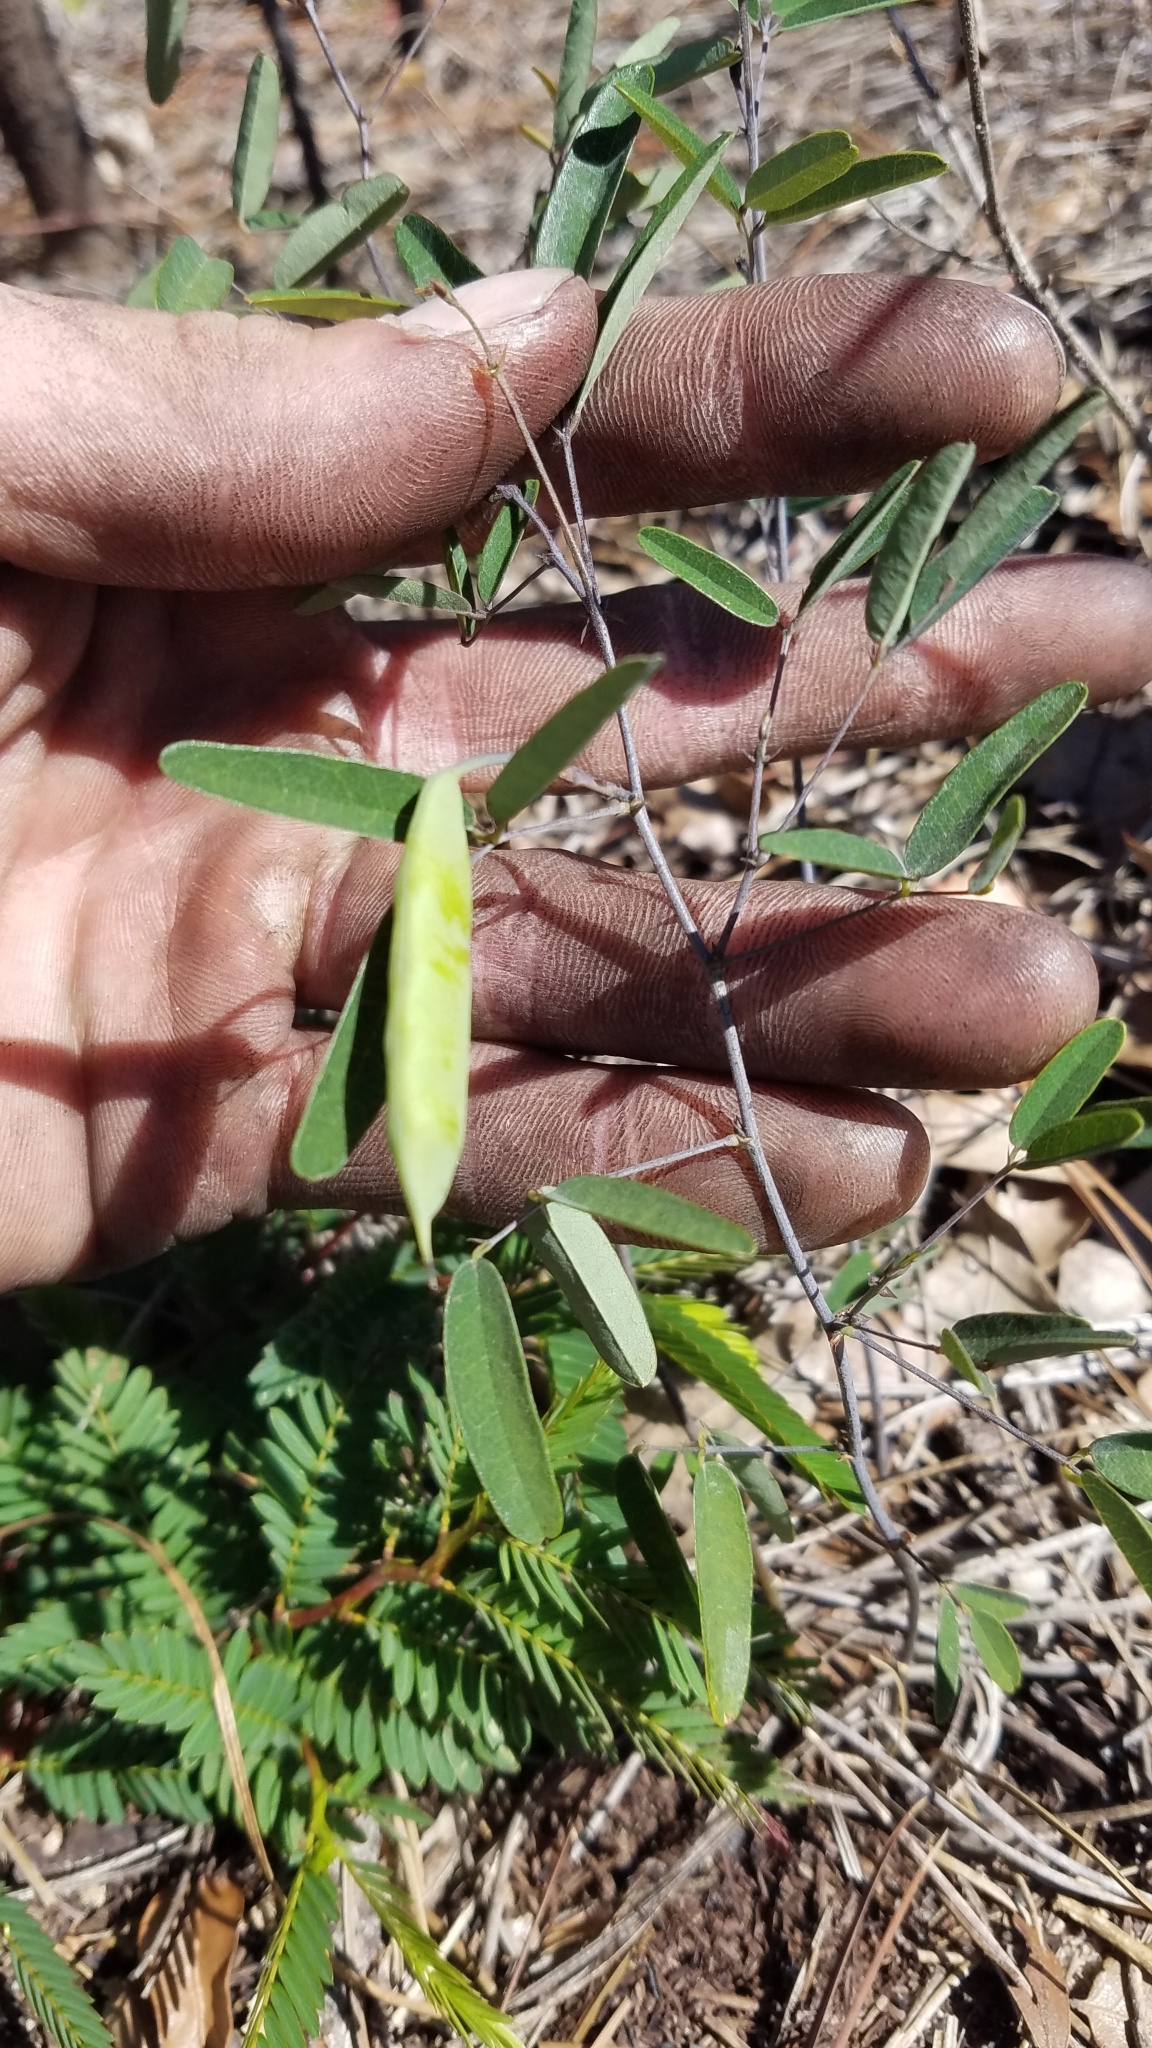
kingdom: Plantae
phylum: Tracheophyta
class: Magnoliopsida
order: Fabales
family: Fabaceae
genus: Clitoria
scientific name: Clitoria fragrans
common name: Pigeon-wings
